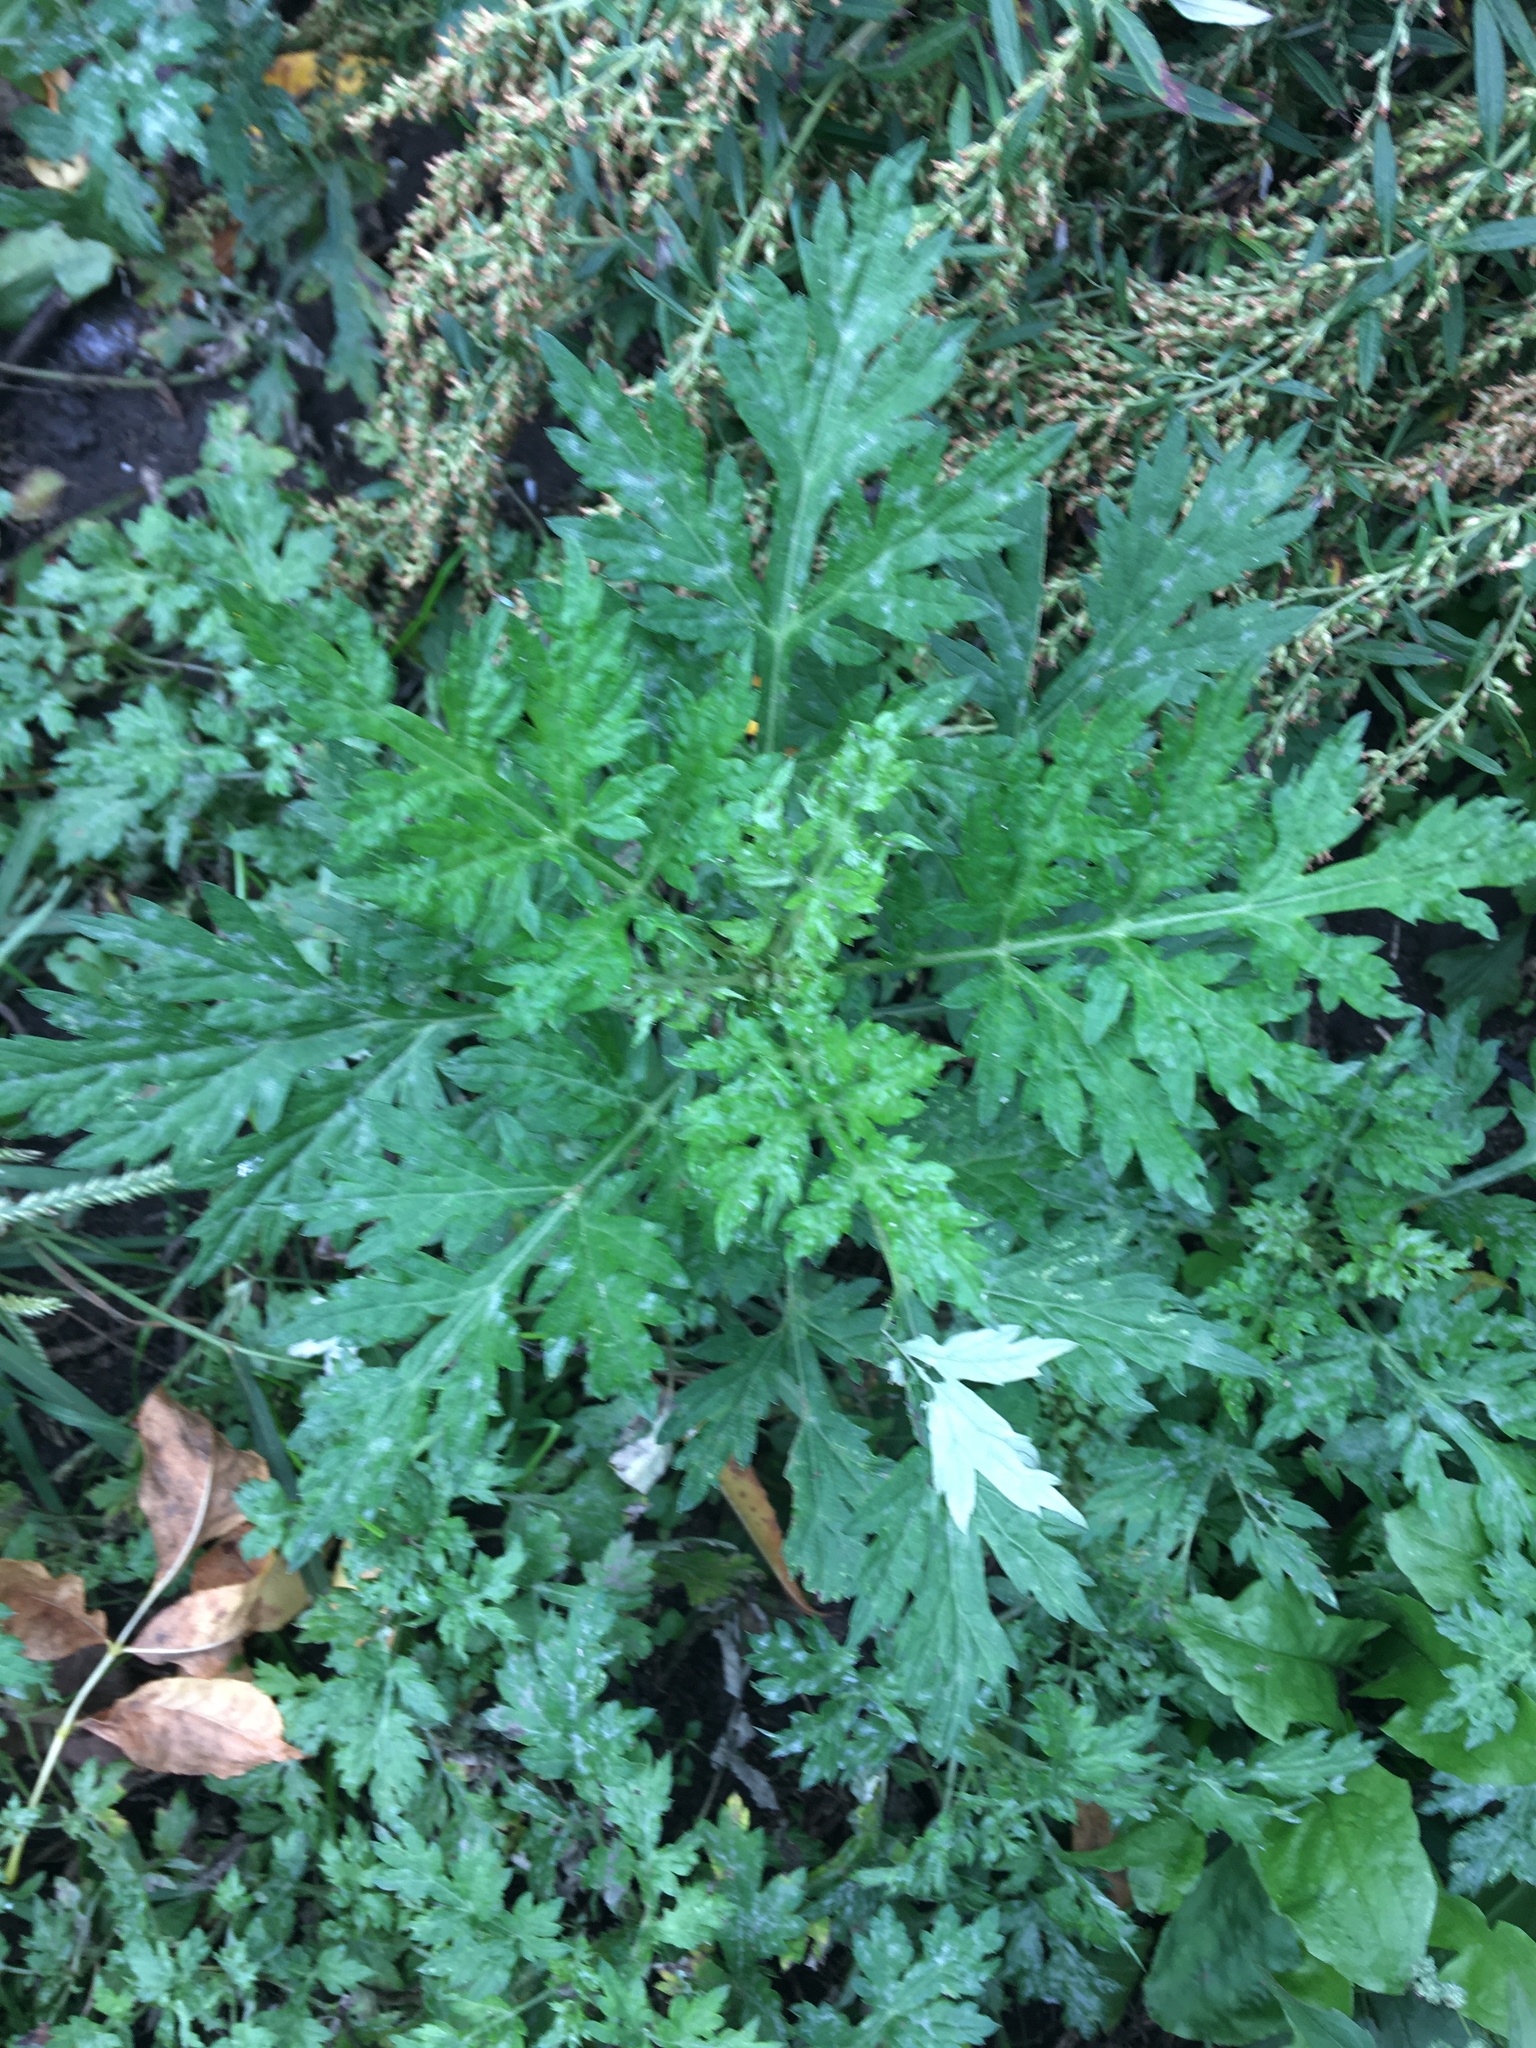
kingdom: Plantae
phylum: Tracheophyta
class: Magnoliopsida
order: Asterales
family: Asteraceae
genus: Artemisia
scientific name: Artemisia vulgaris
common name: Mugwort
